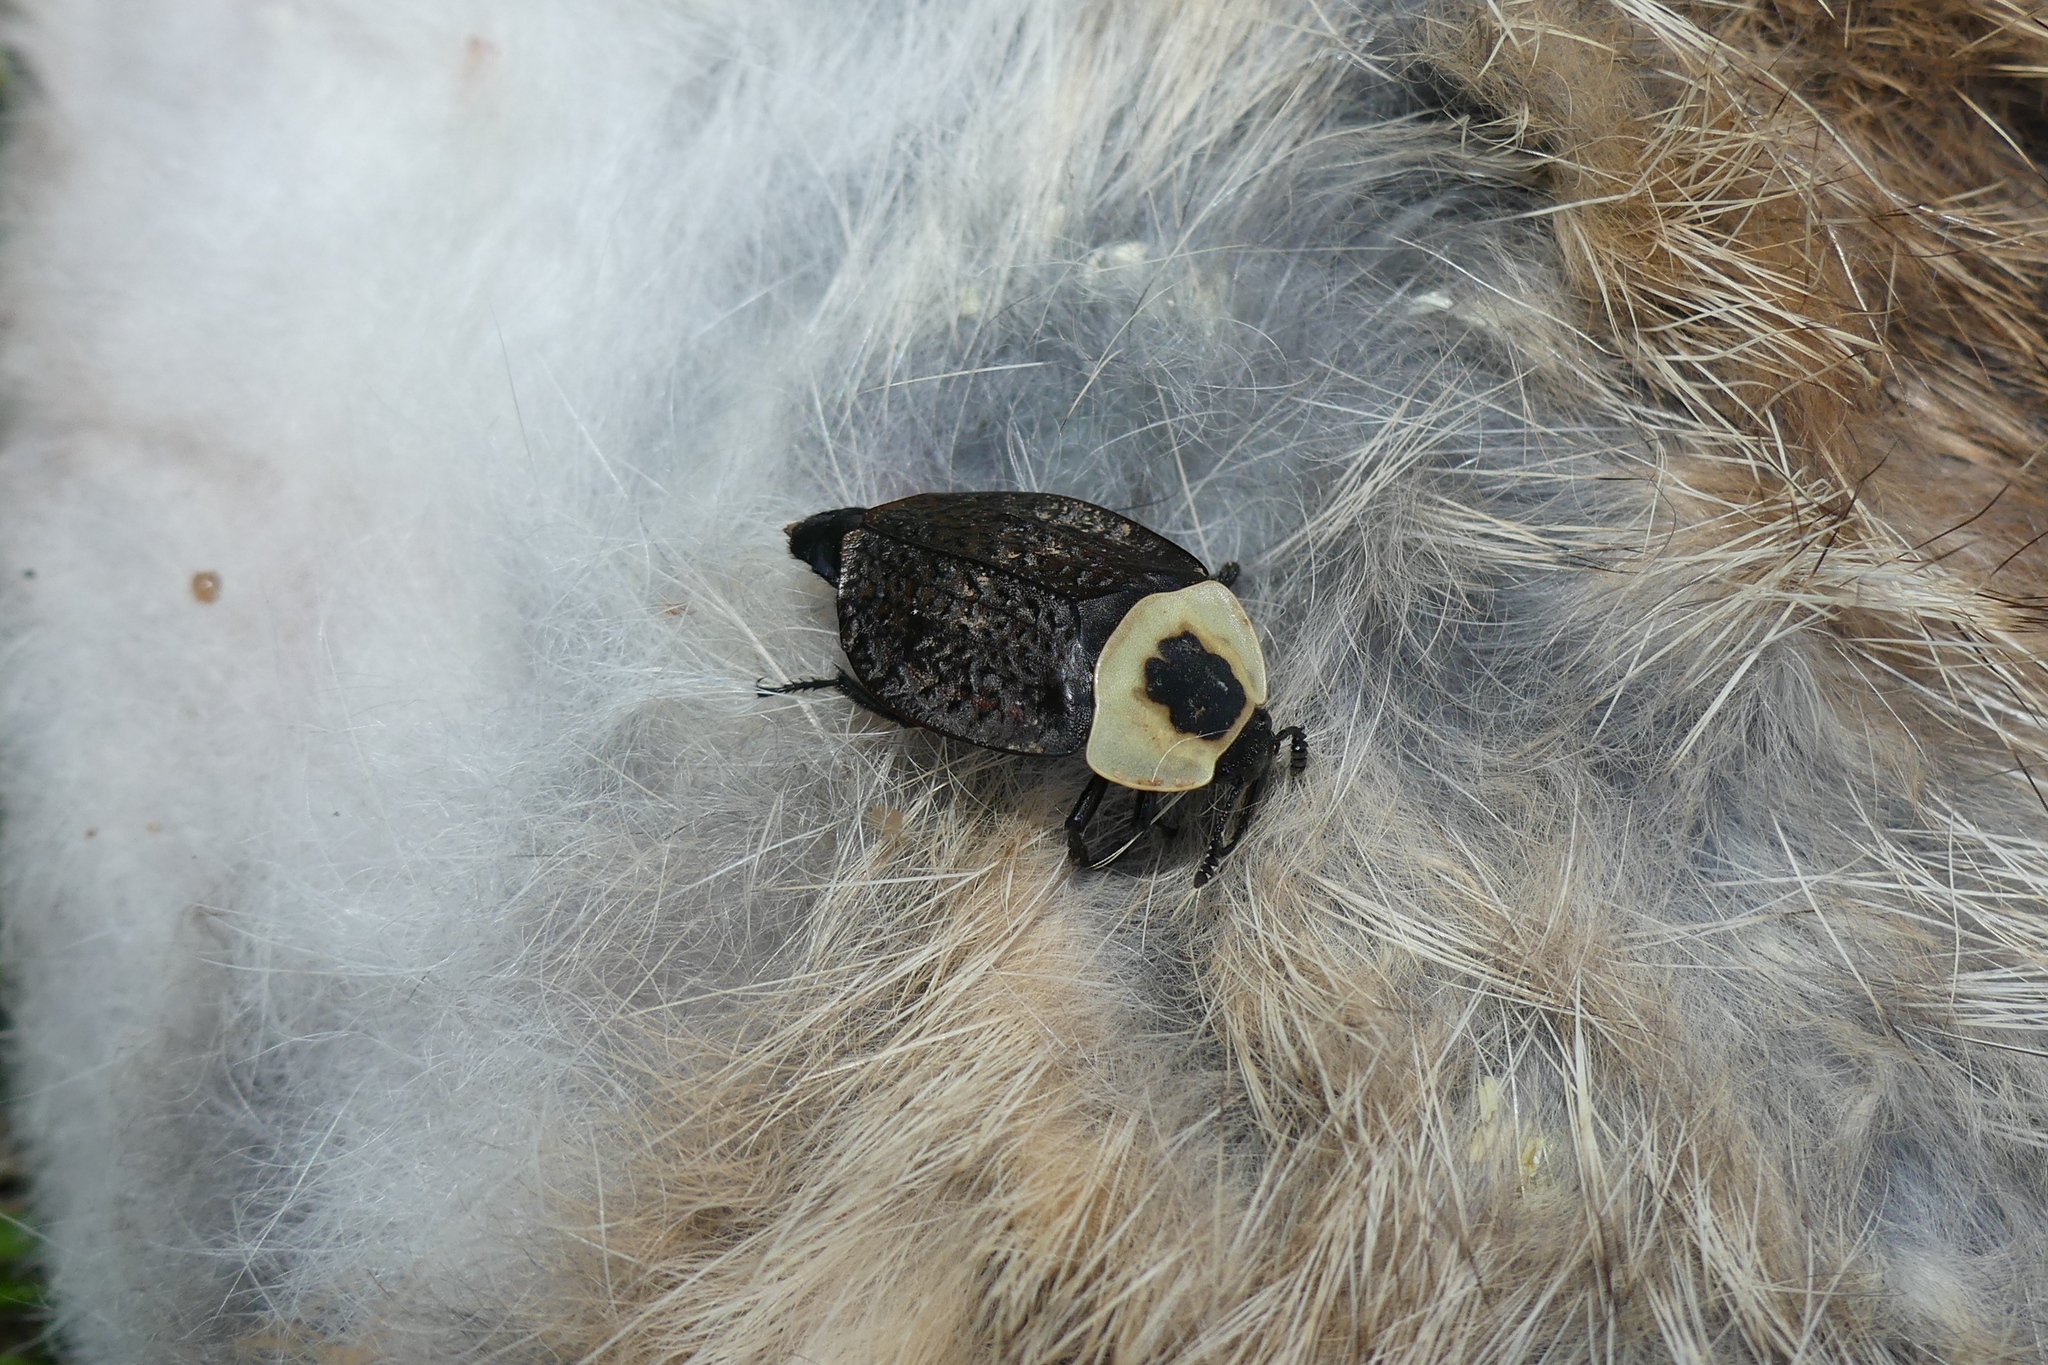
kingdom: Animalia
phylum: Arthropoda
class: Insecta
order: Coleoptera
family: Staphylinidae
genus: Necrophila
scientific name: Necrophila americana
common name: American carrion beetle
